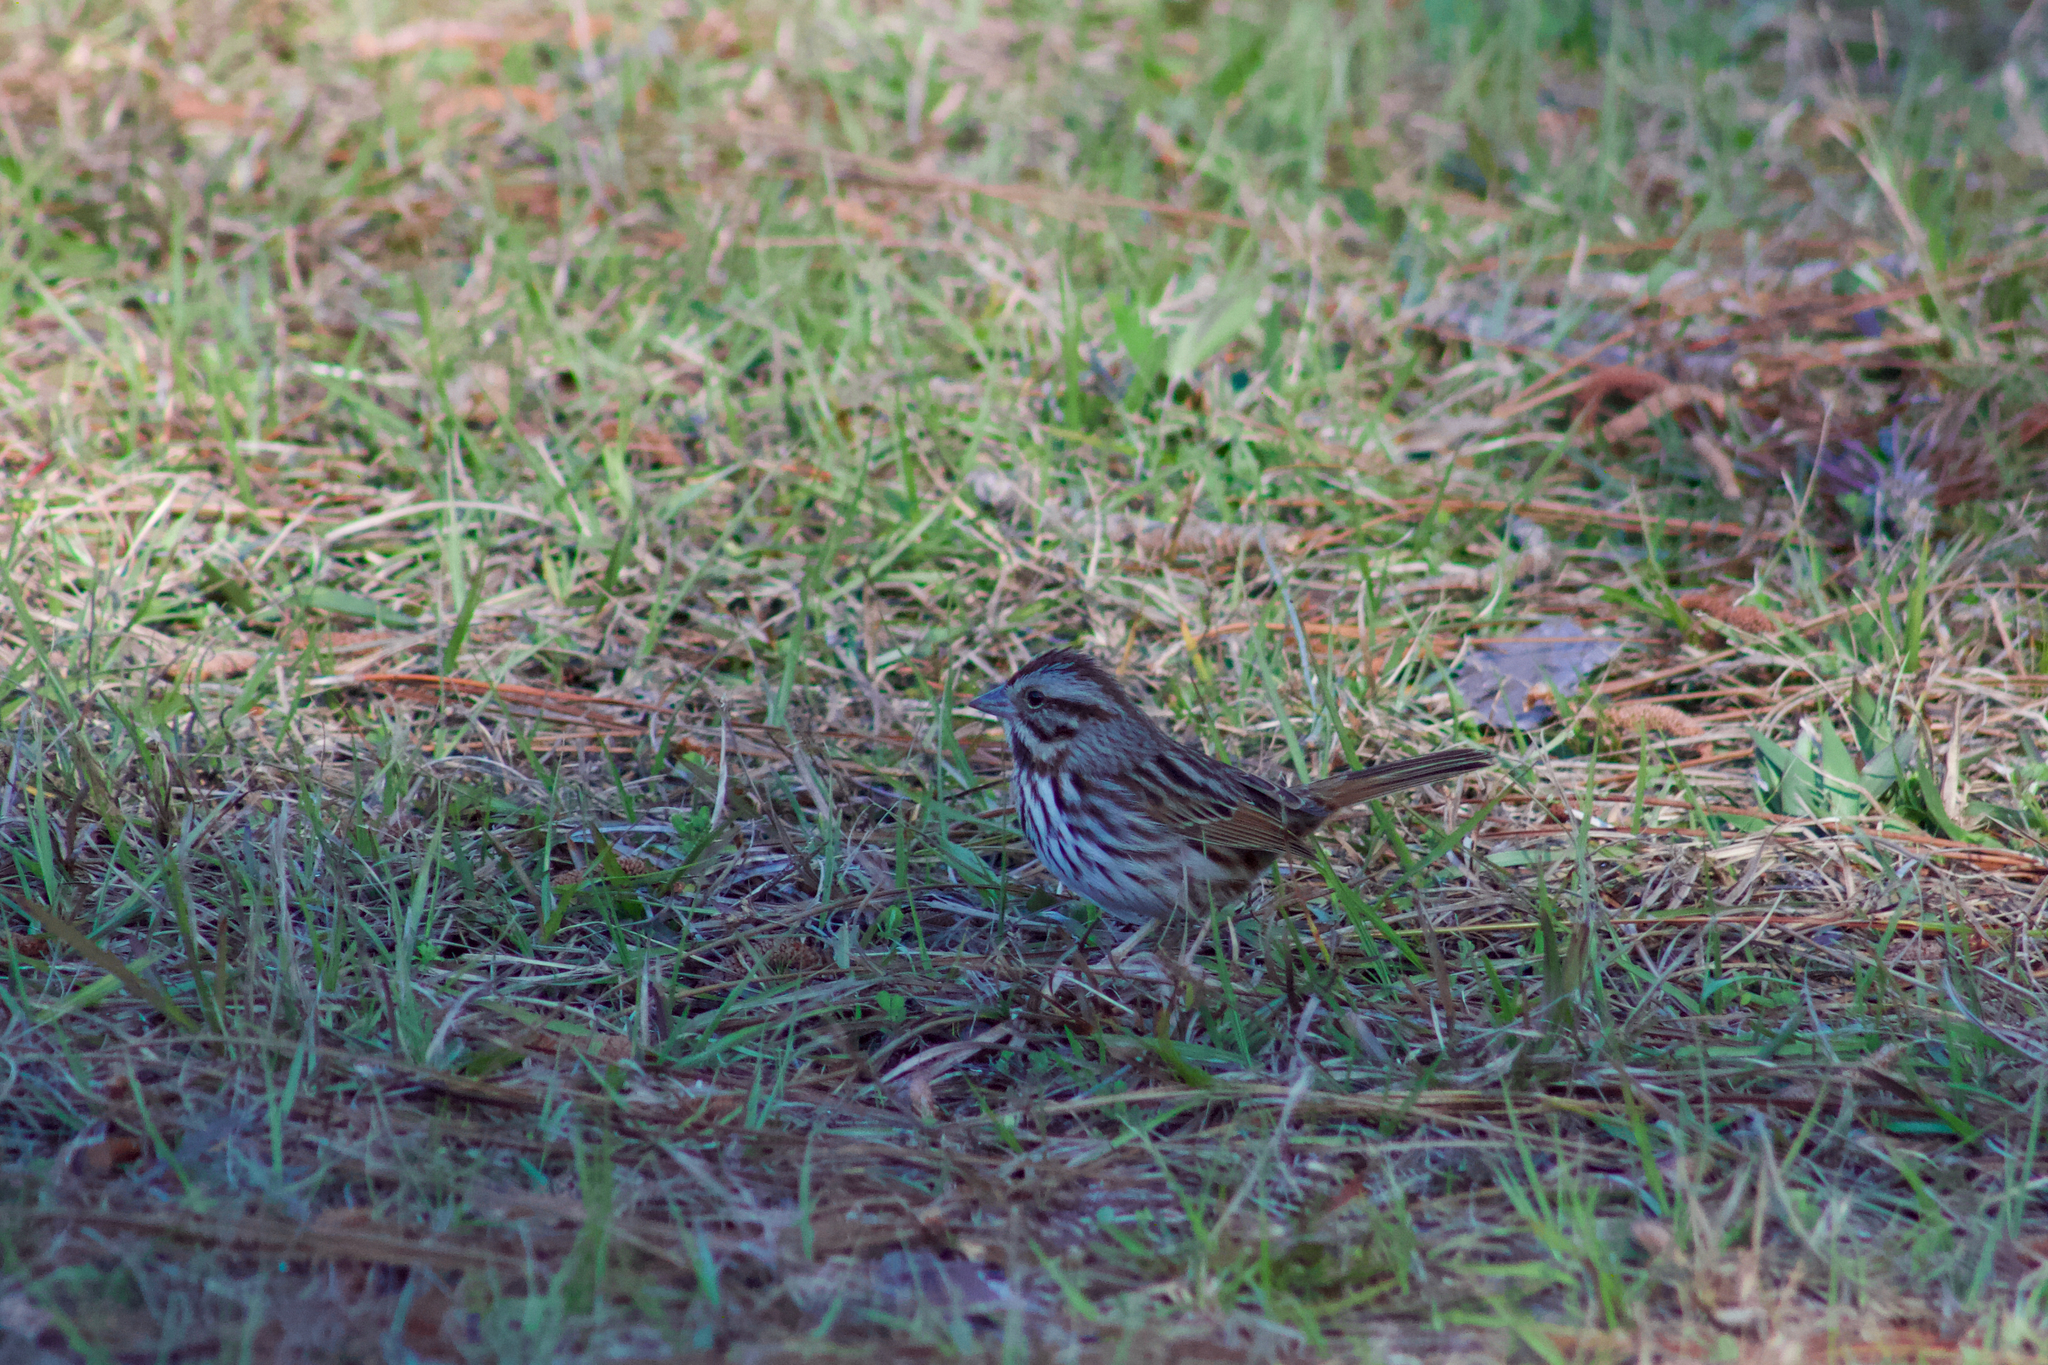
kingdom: Animalia
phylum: Chordata
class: Aves
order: Passeriformes
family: Passerellidae
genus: Melospiza
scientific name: Melospiza melodia
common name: Song sparrow
